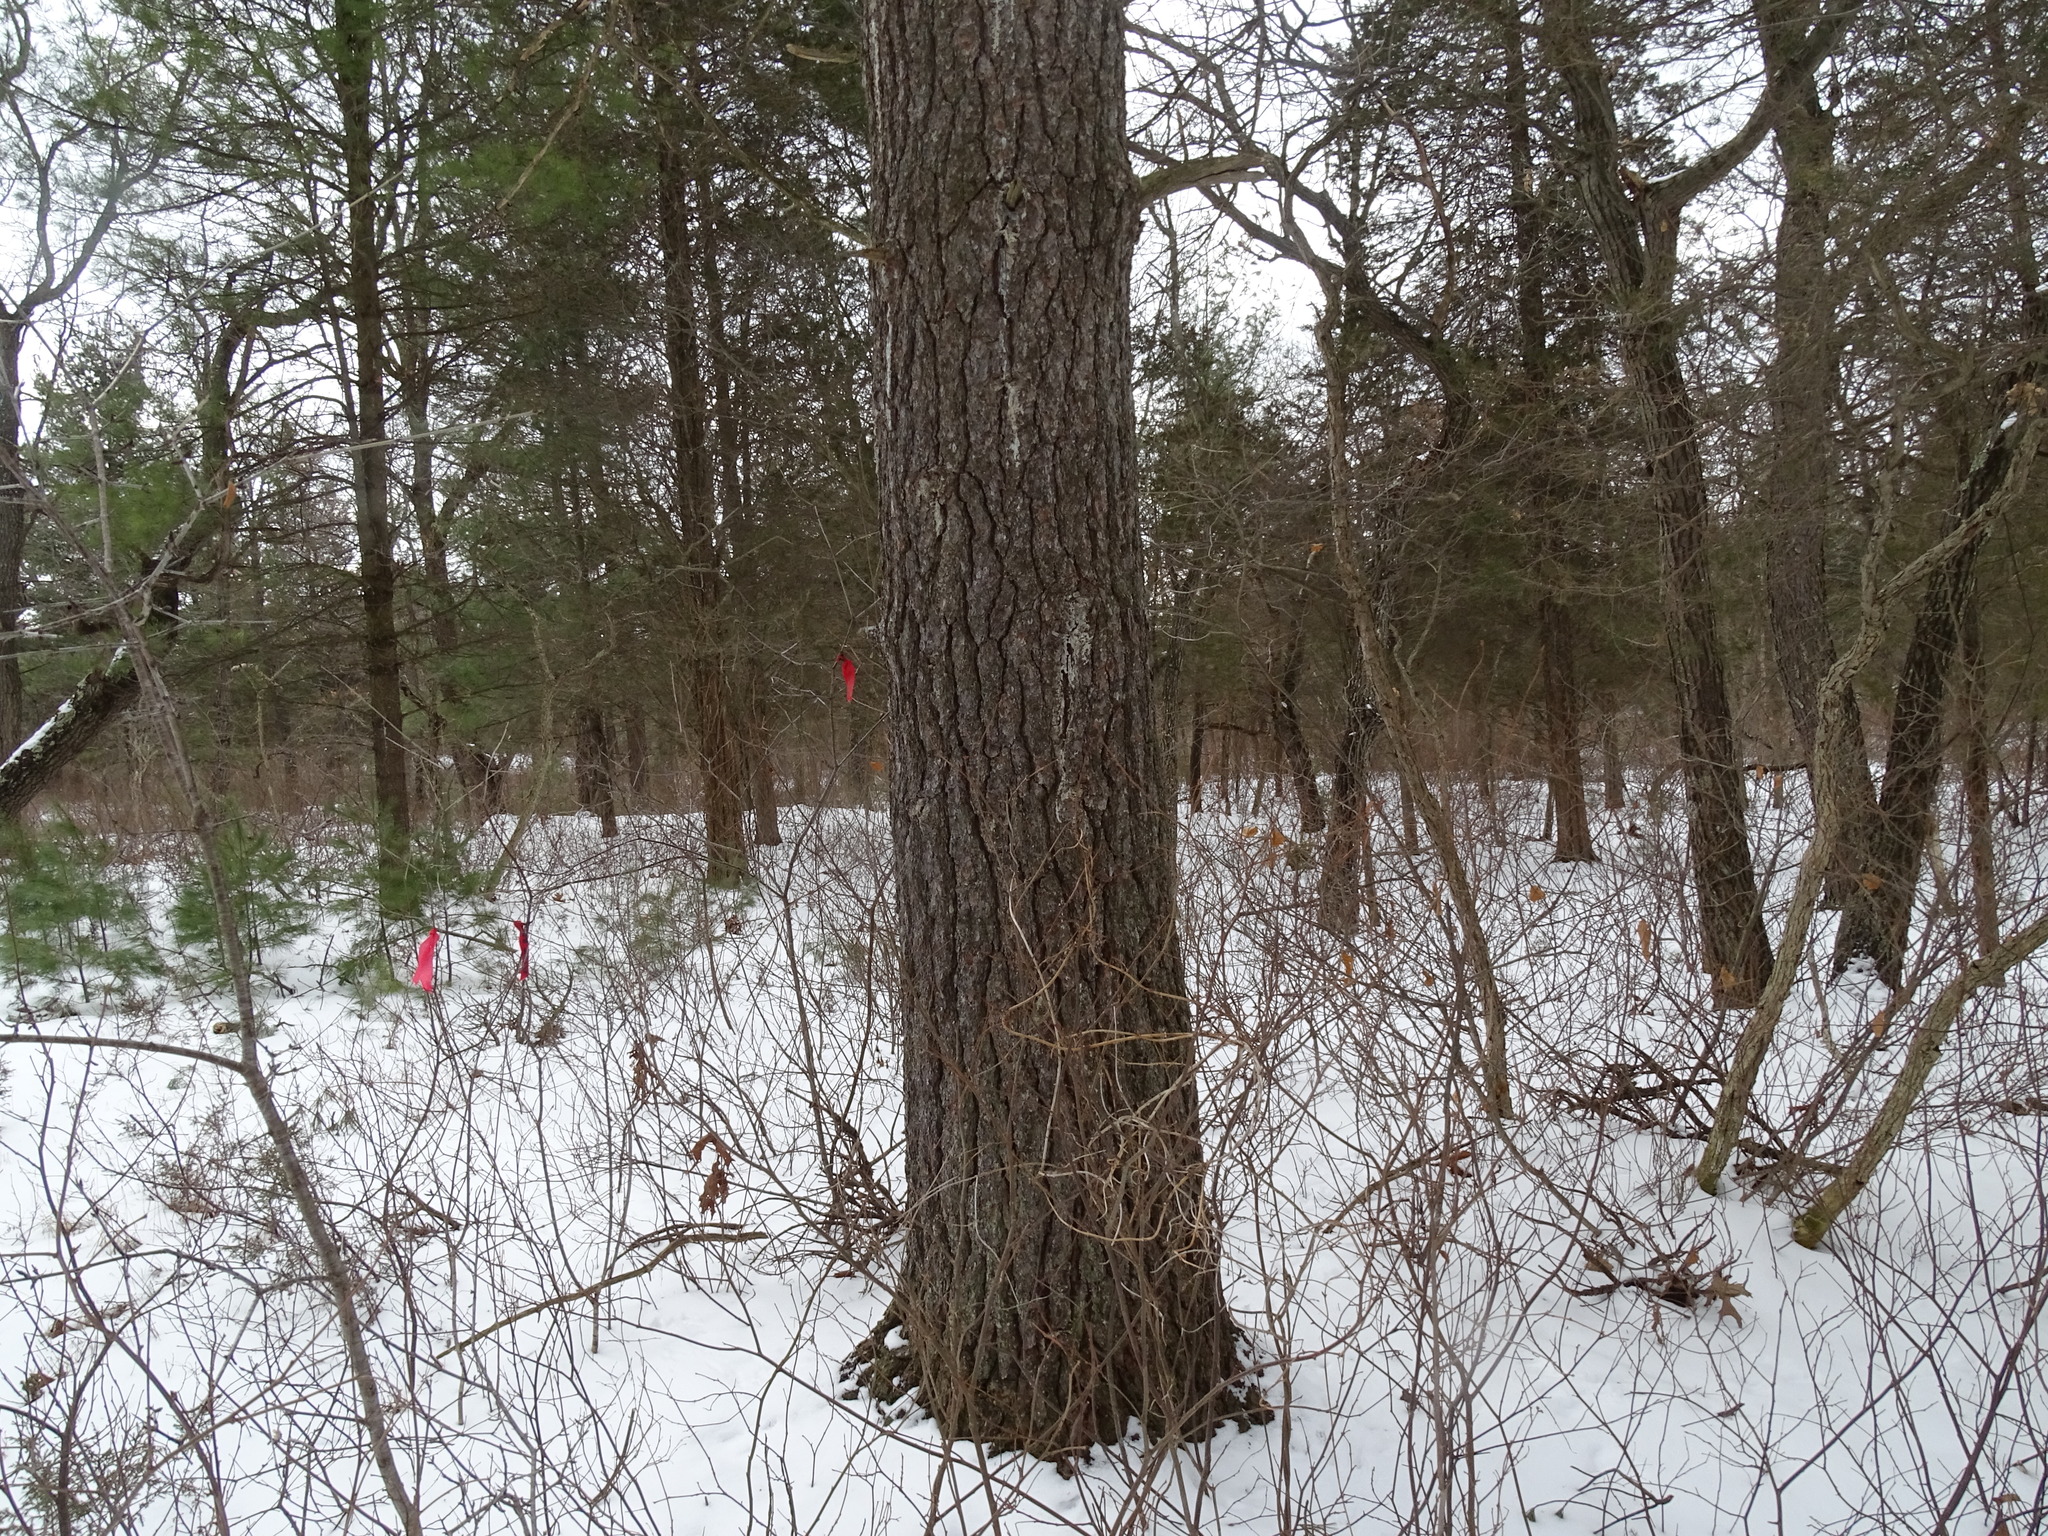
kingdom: Plantae
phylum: Tracheophyta
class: Pinopsida
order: Pinales
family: Pinaceae
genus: Pinus
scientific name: Pinus strobus
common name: Weymouth pine
